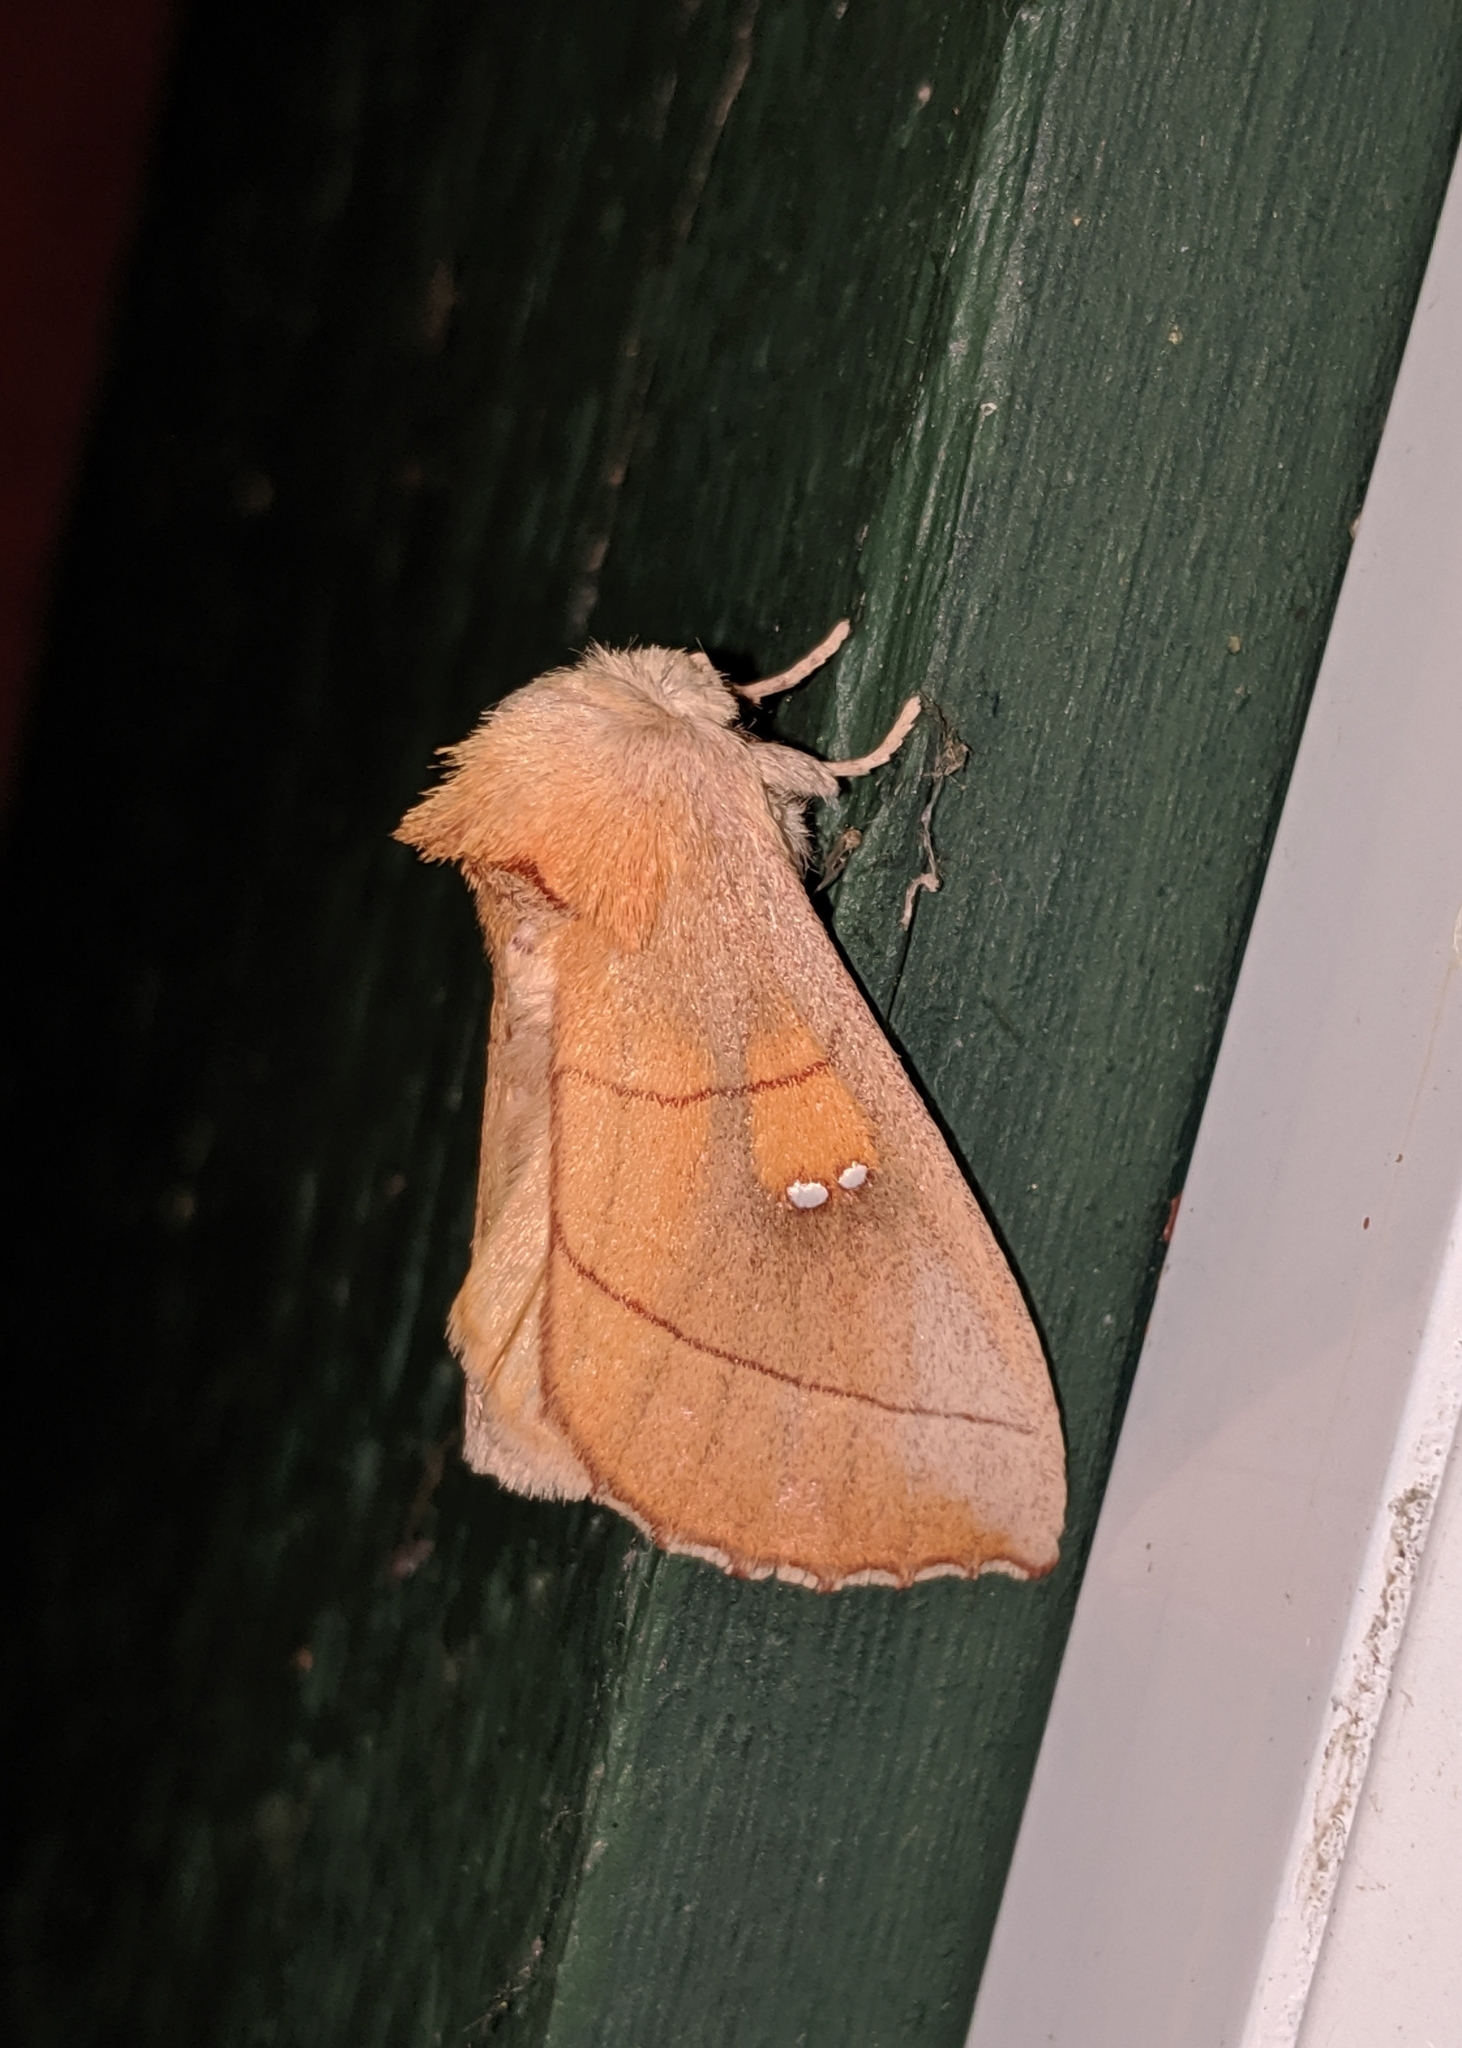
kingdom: Animalia
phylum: Arthropoda
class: Insecta
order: Lepidoptera
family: Notodontidae
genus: Nadata
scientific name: Nadata gibbosa
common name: White-dotted prominent
